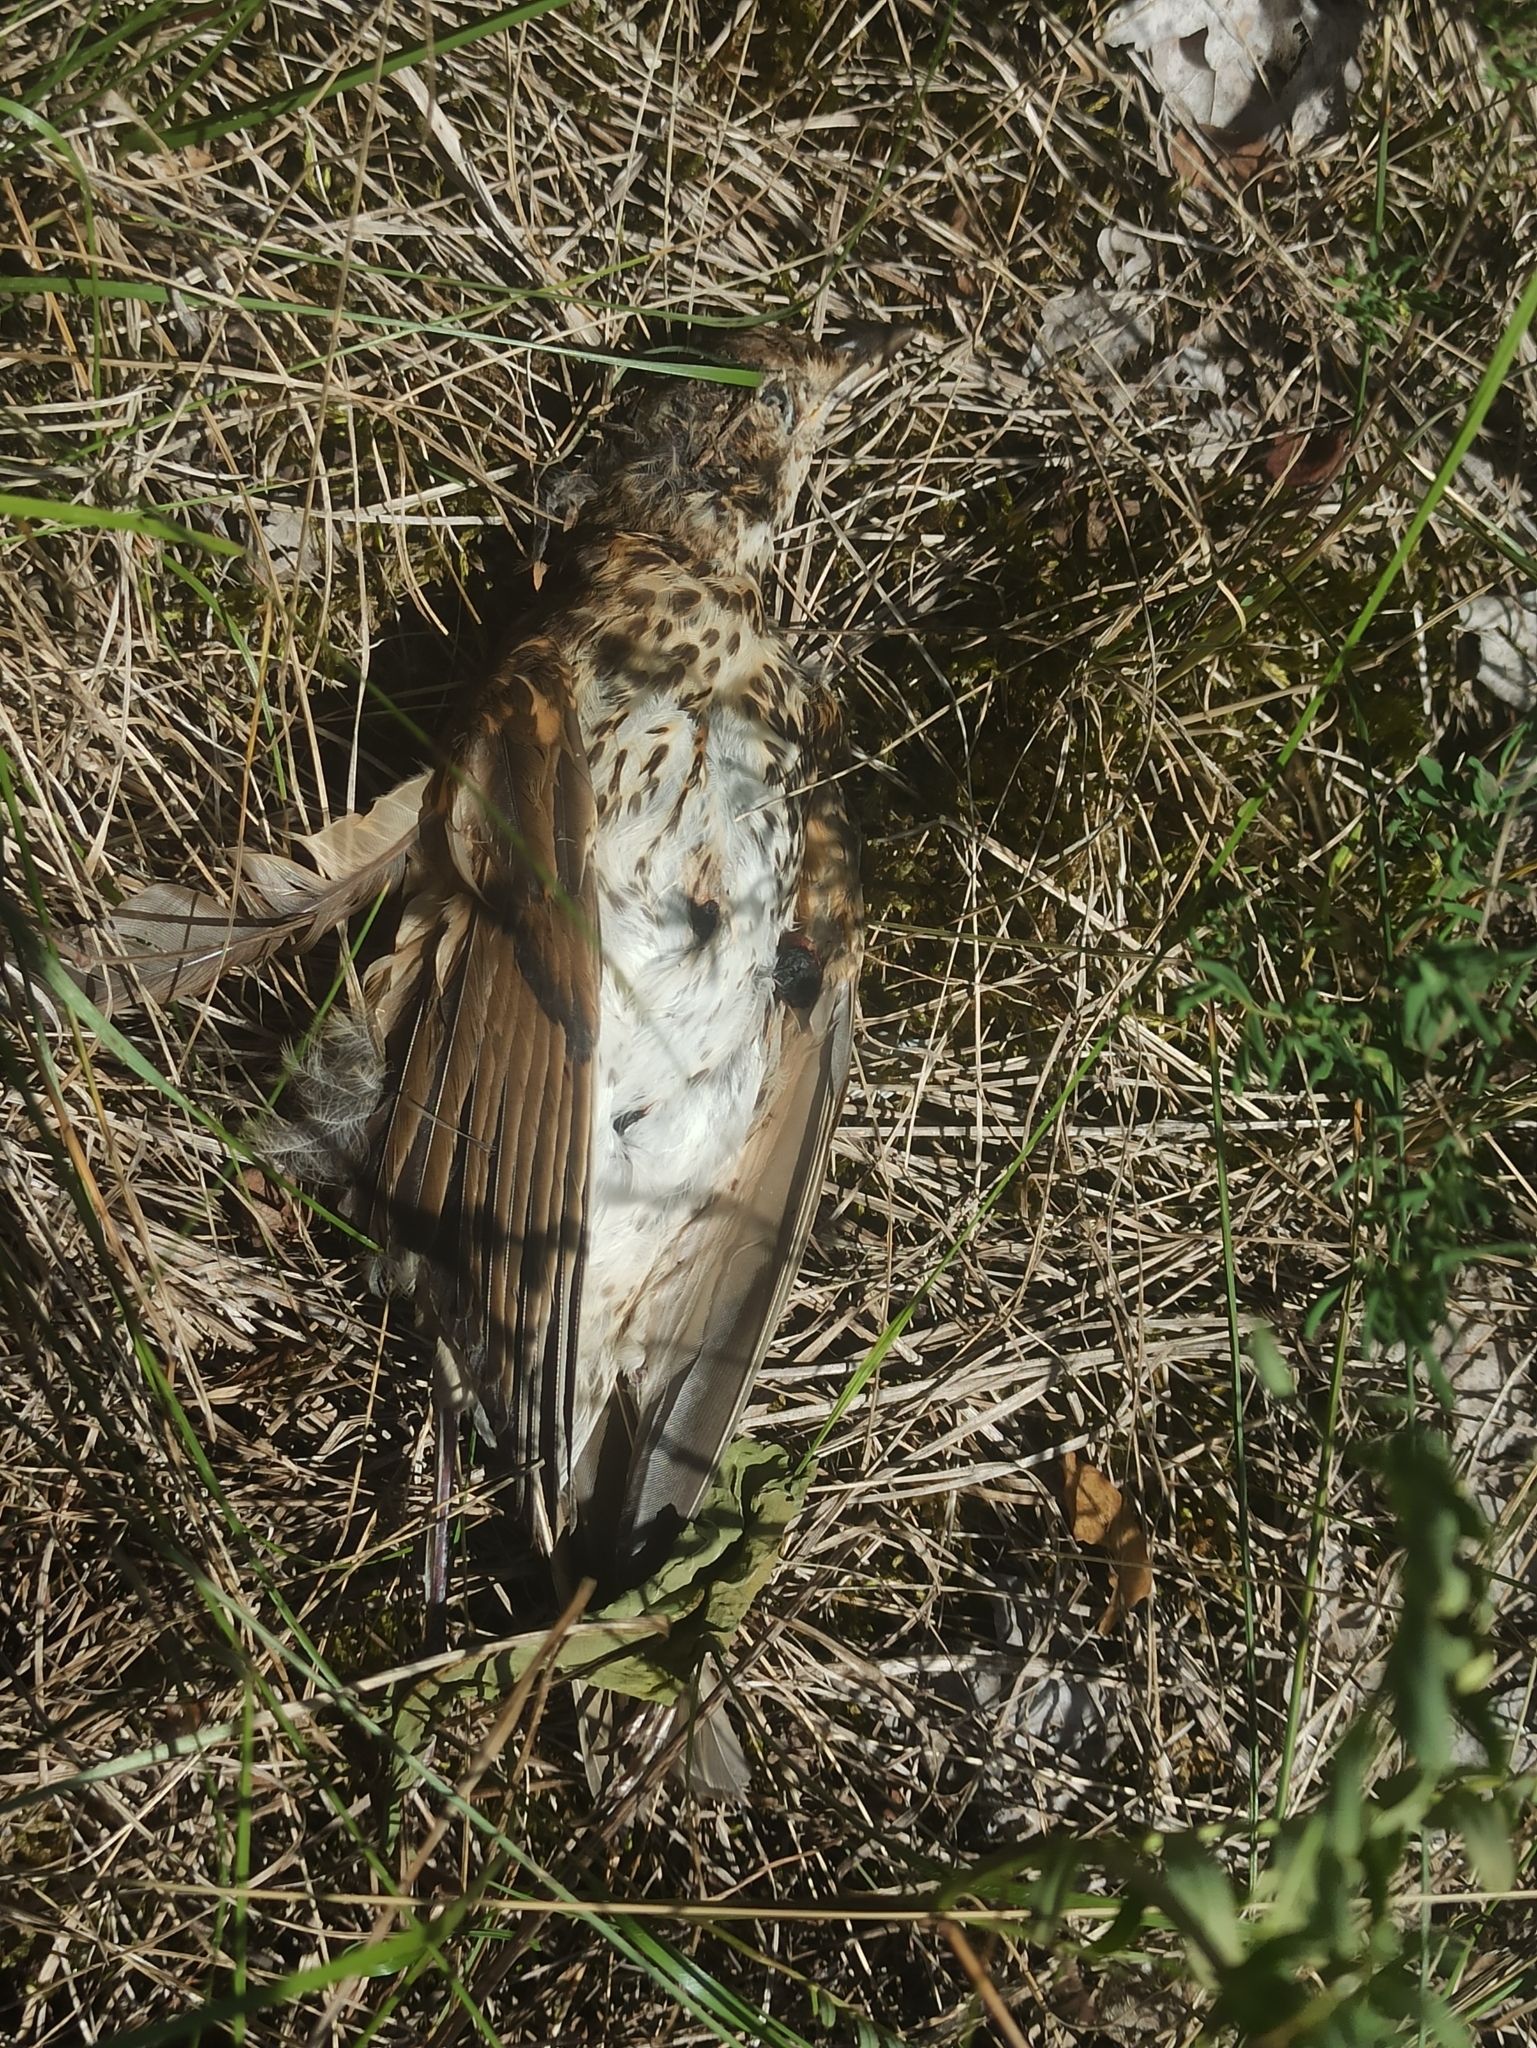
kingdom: Animalia
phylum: Chordata
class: Aves
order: Passeriformes
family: Turdidae
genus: Turdus
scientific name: Turdus philomelos
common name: Song thrush
